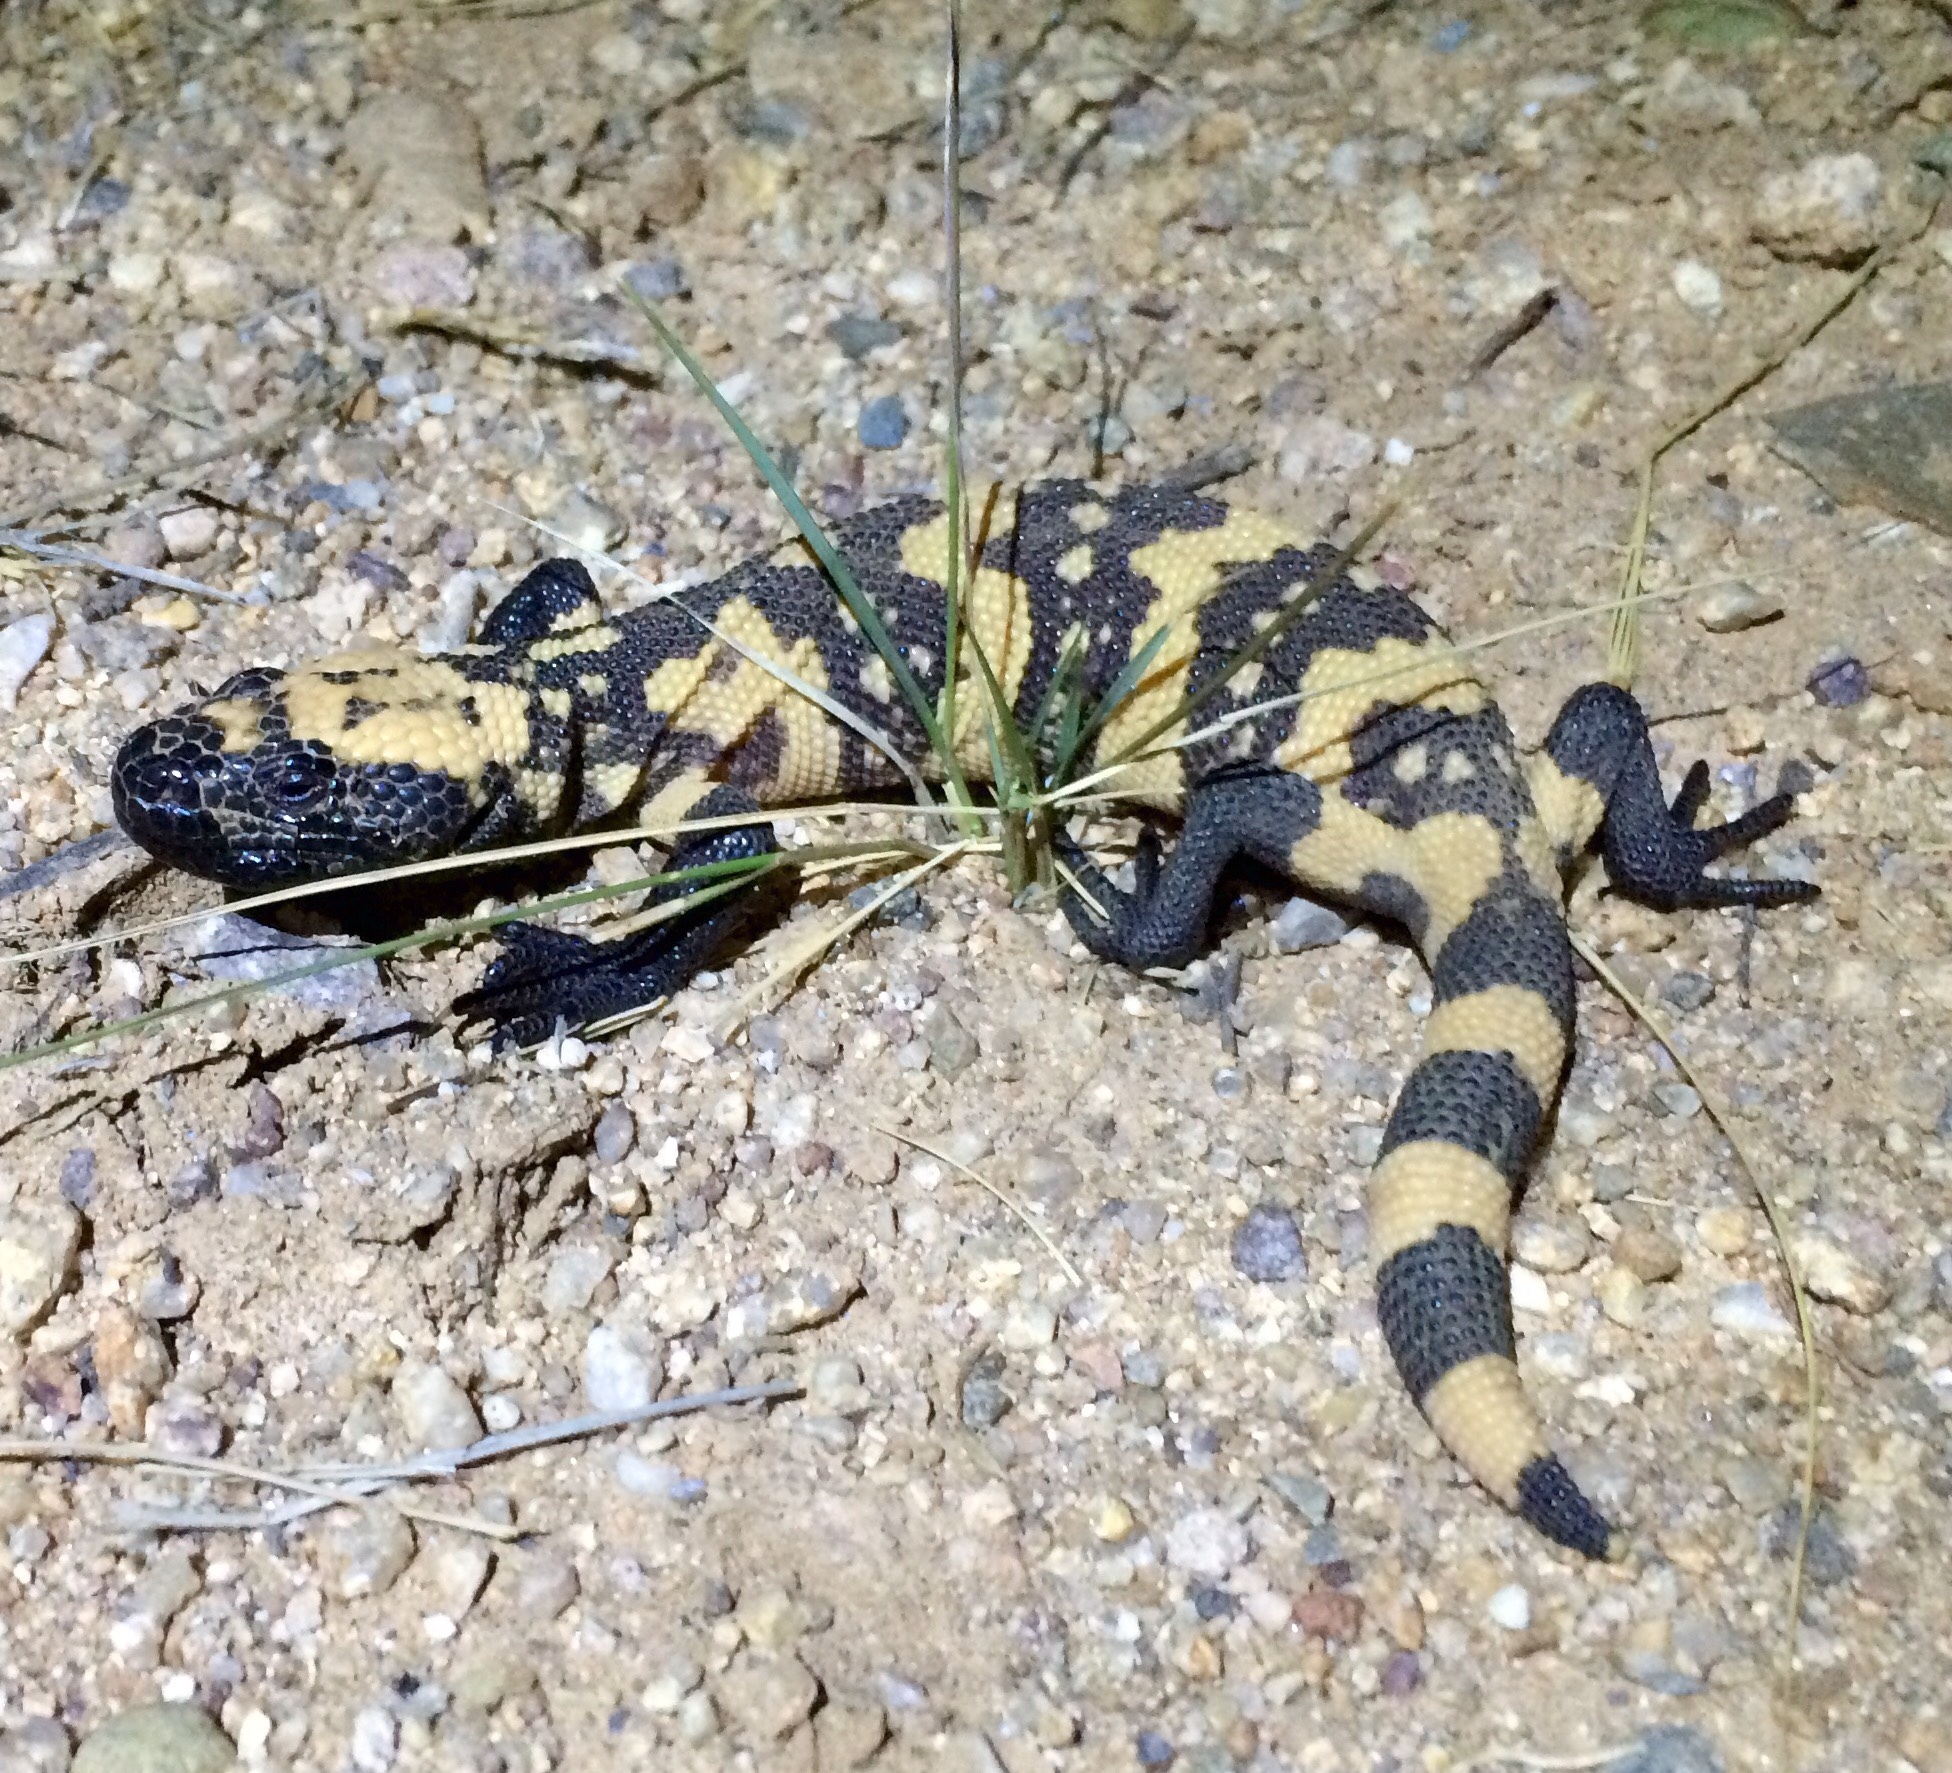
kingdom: Animalia
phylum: Chordata
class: Squamata
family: Helodermatidae
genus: Heloderma
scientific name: Heloderma suspectum
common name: Gila monster
